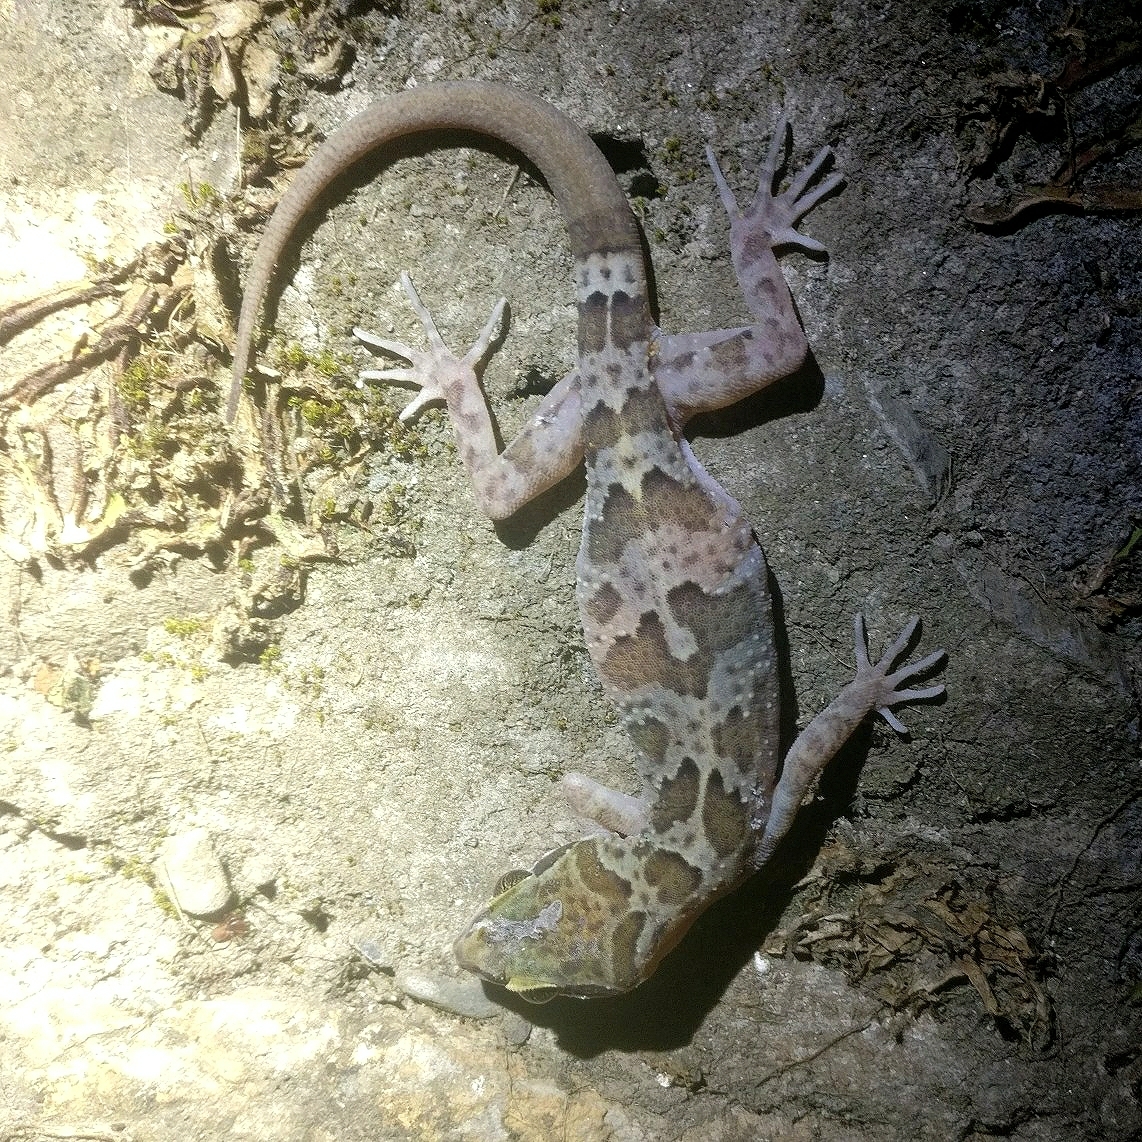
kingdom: Animalia
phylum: Chordata
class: Squamata
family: Gekkonidae
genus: Cyrtodactylus
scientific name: Cyrtodactylus fasciolatus
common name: Banded bent-toed gecko
